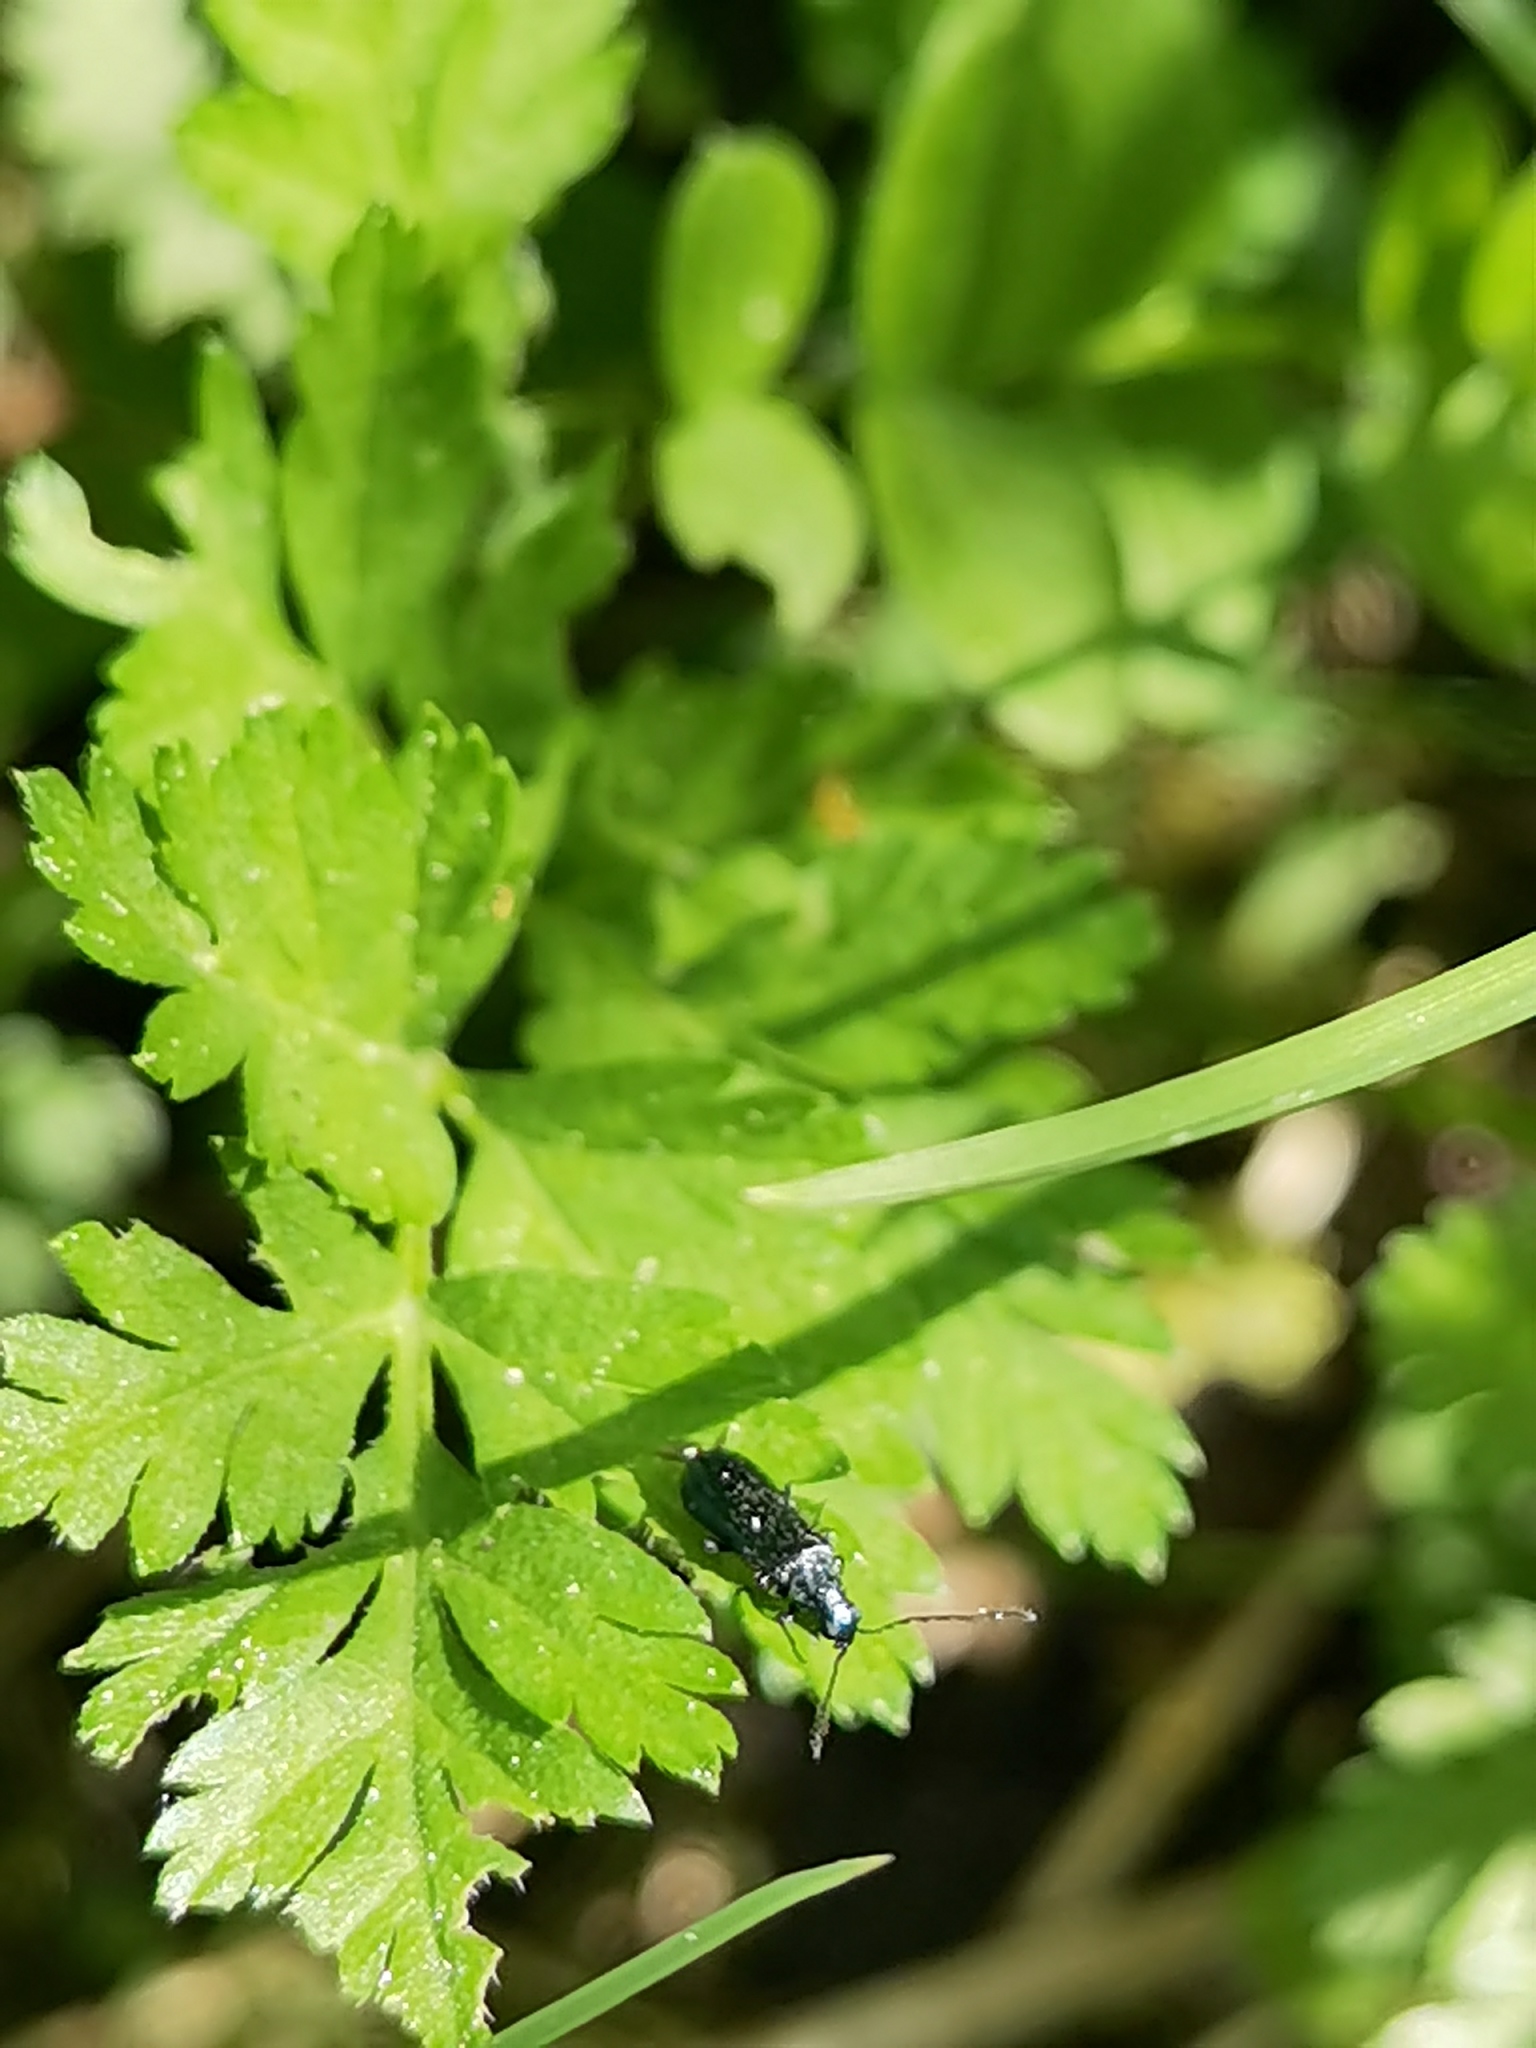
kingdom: Animalia
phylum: Arthropoda
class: Insecta
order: Coleoptera
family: Melyridae
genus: Dasytes
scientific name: Dasytes caeruleus
